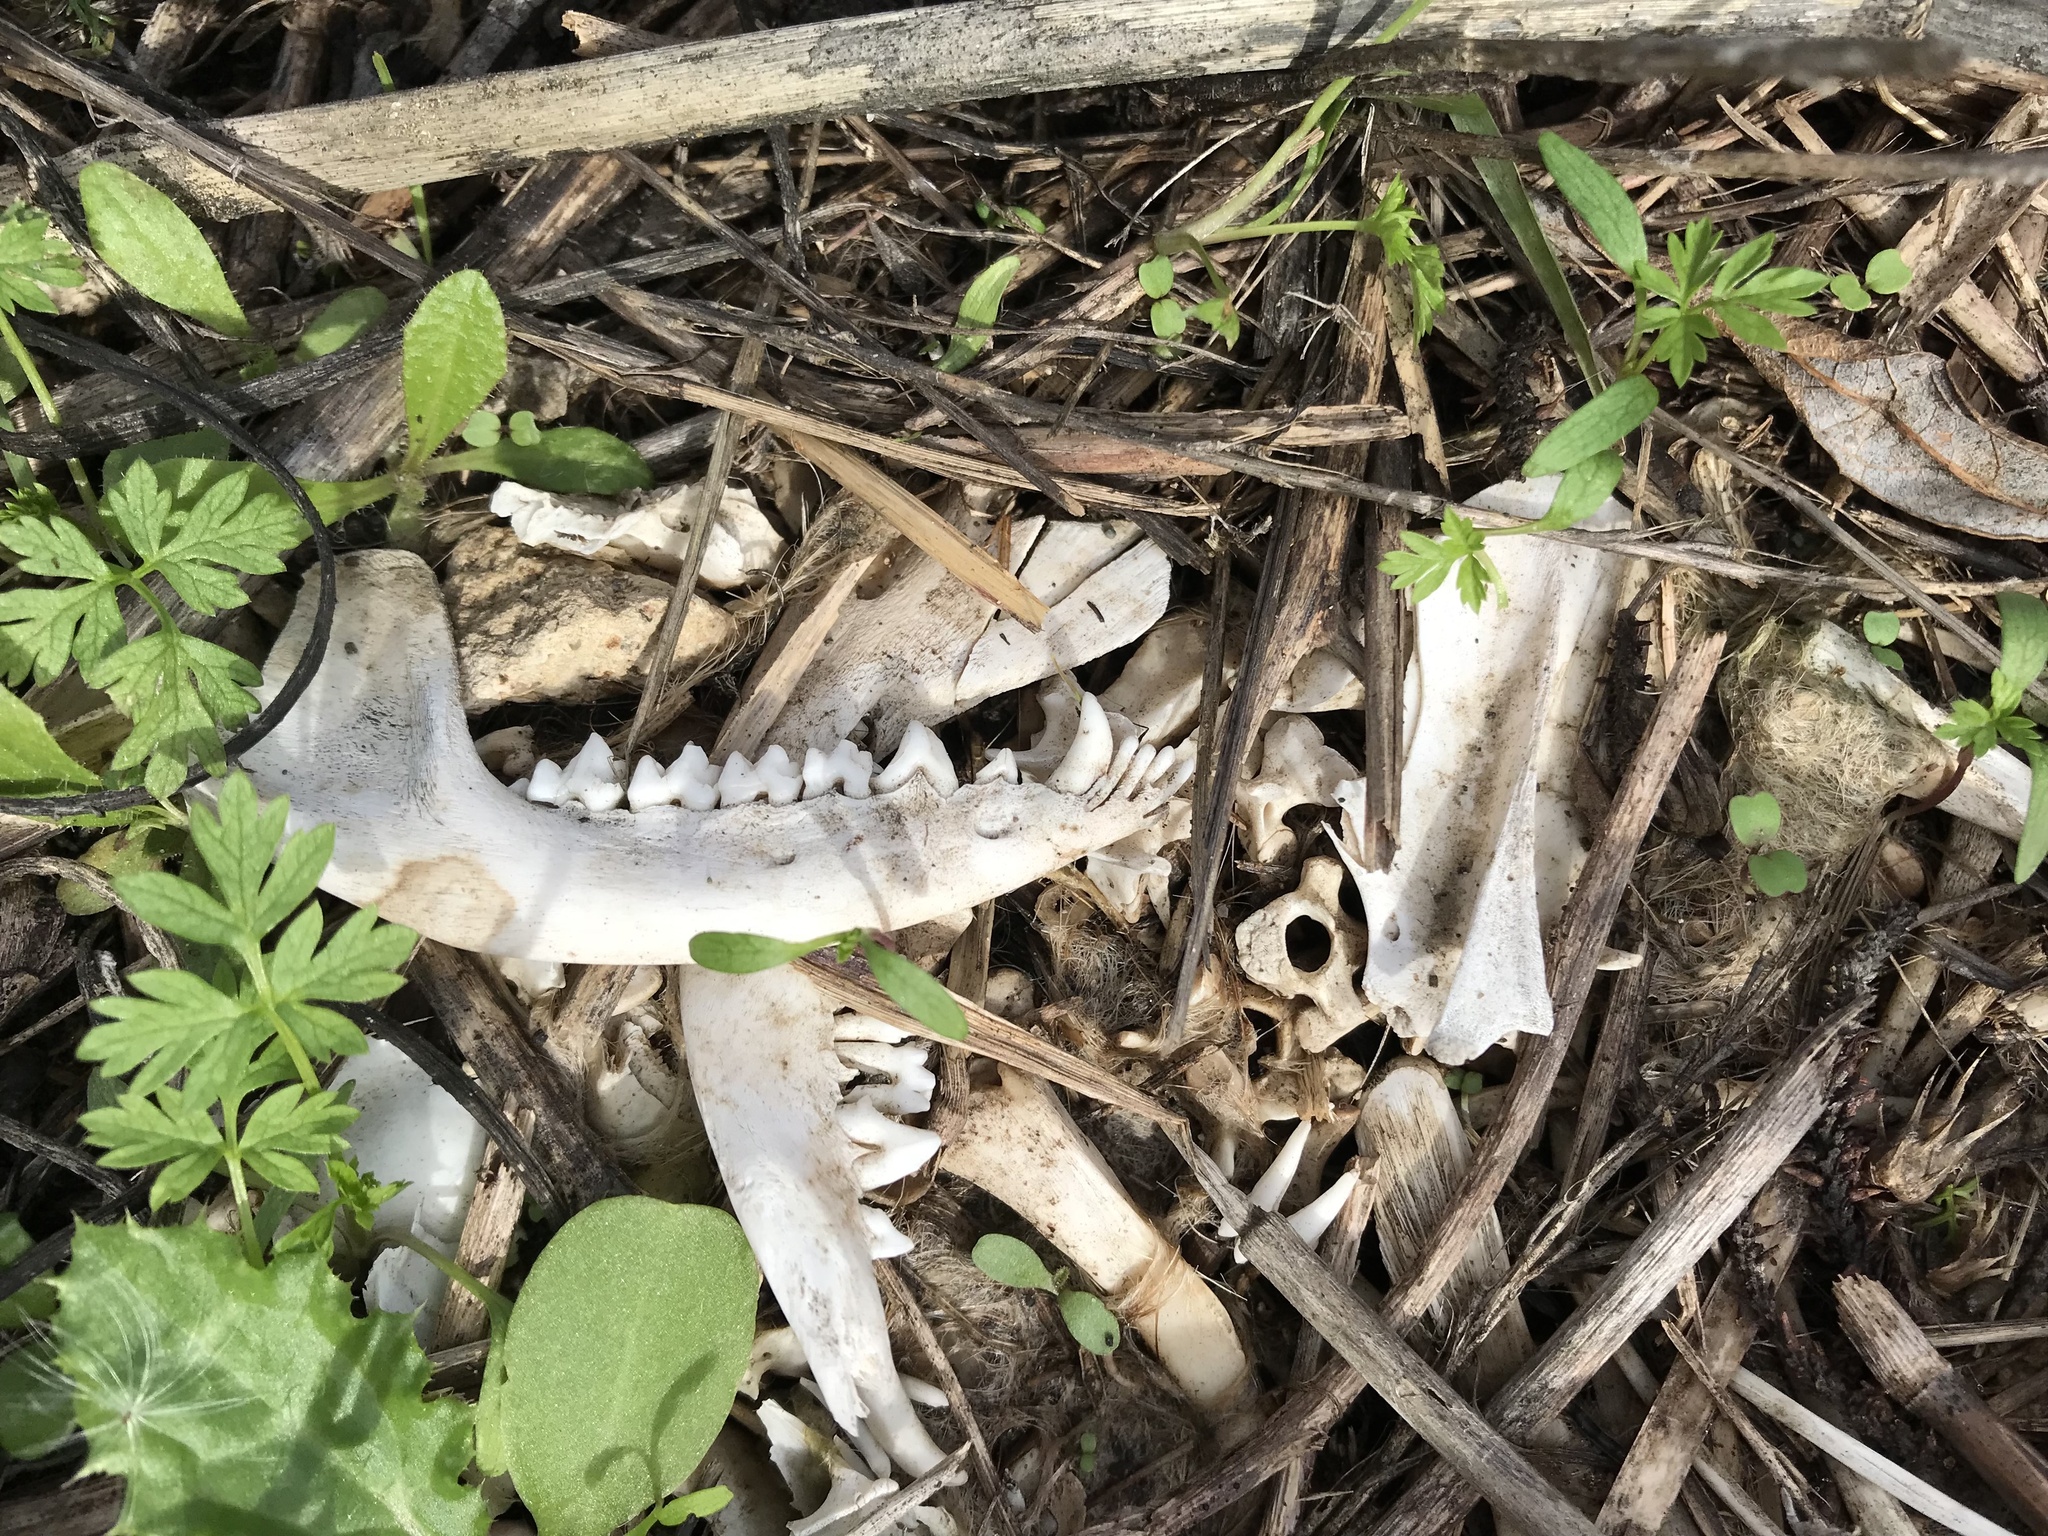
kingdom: Animalia
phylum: Chordata
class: Mammalia
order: Didelphimorphia
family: Didelphidae
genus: Didelphis
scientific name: Didelphis virginiana
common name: Virginia opossum
